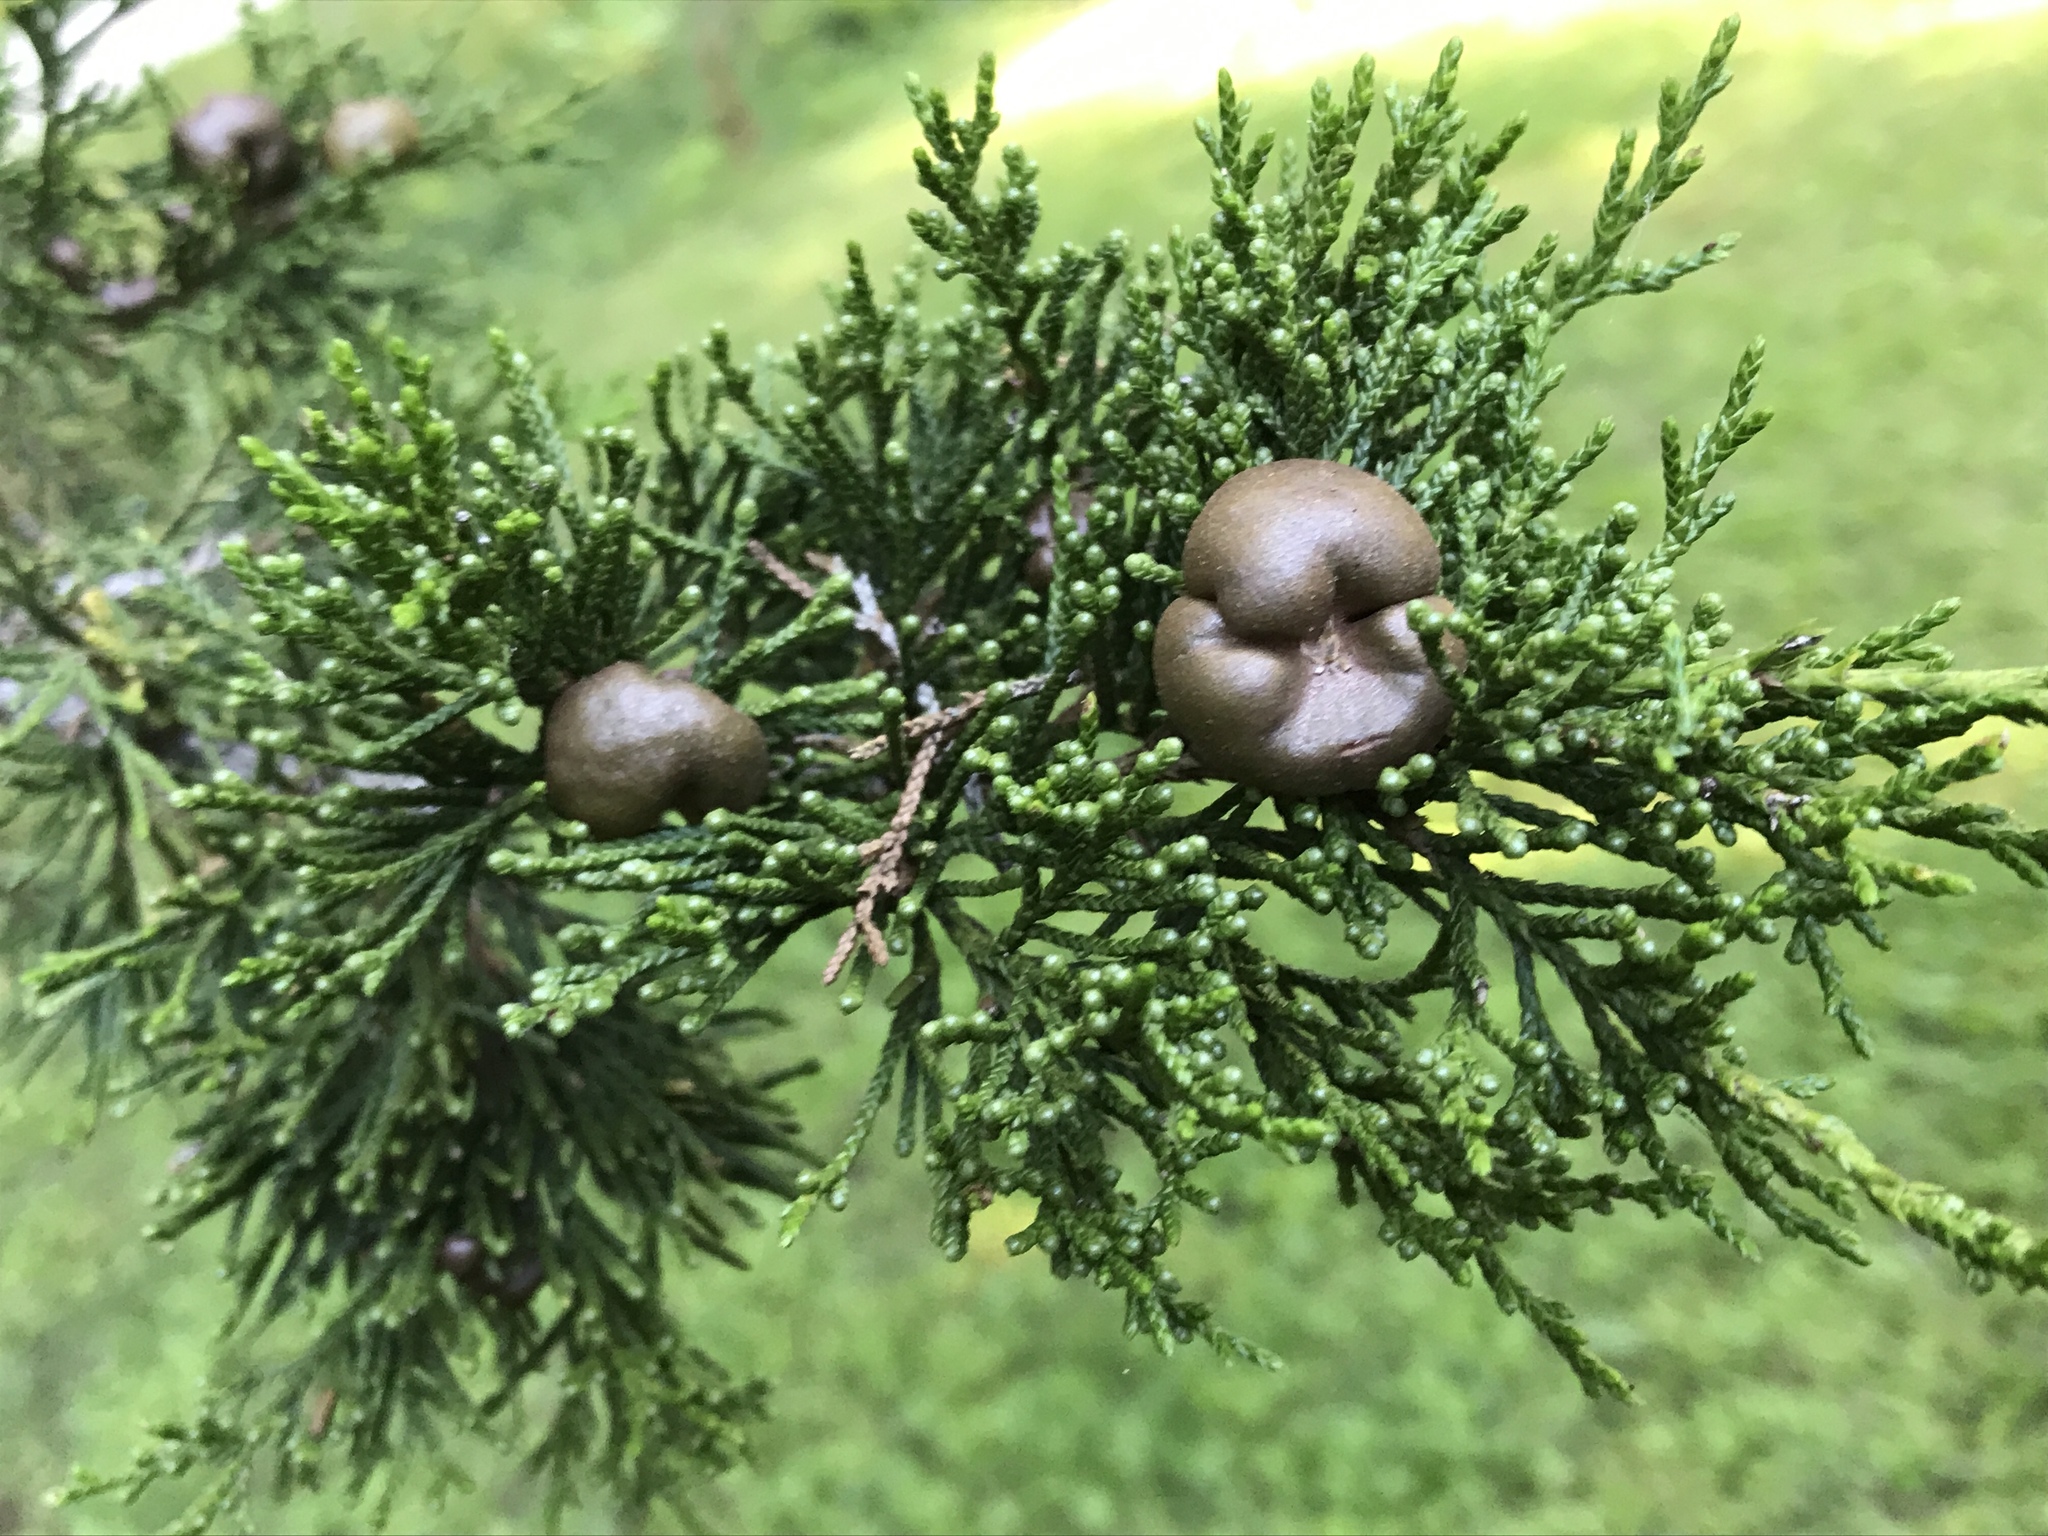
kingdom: Fungi
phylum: Basidiomycota
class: Pucciniomycetes
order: Pucciniales
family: Gymnosporangiaceae
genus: Gymnosporangium
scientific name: Gymnosporangium juniperi-virginianae
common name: Juniper-apple rust
